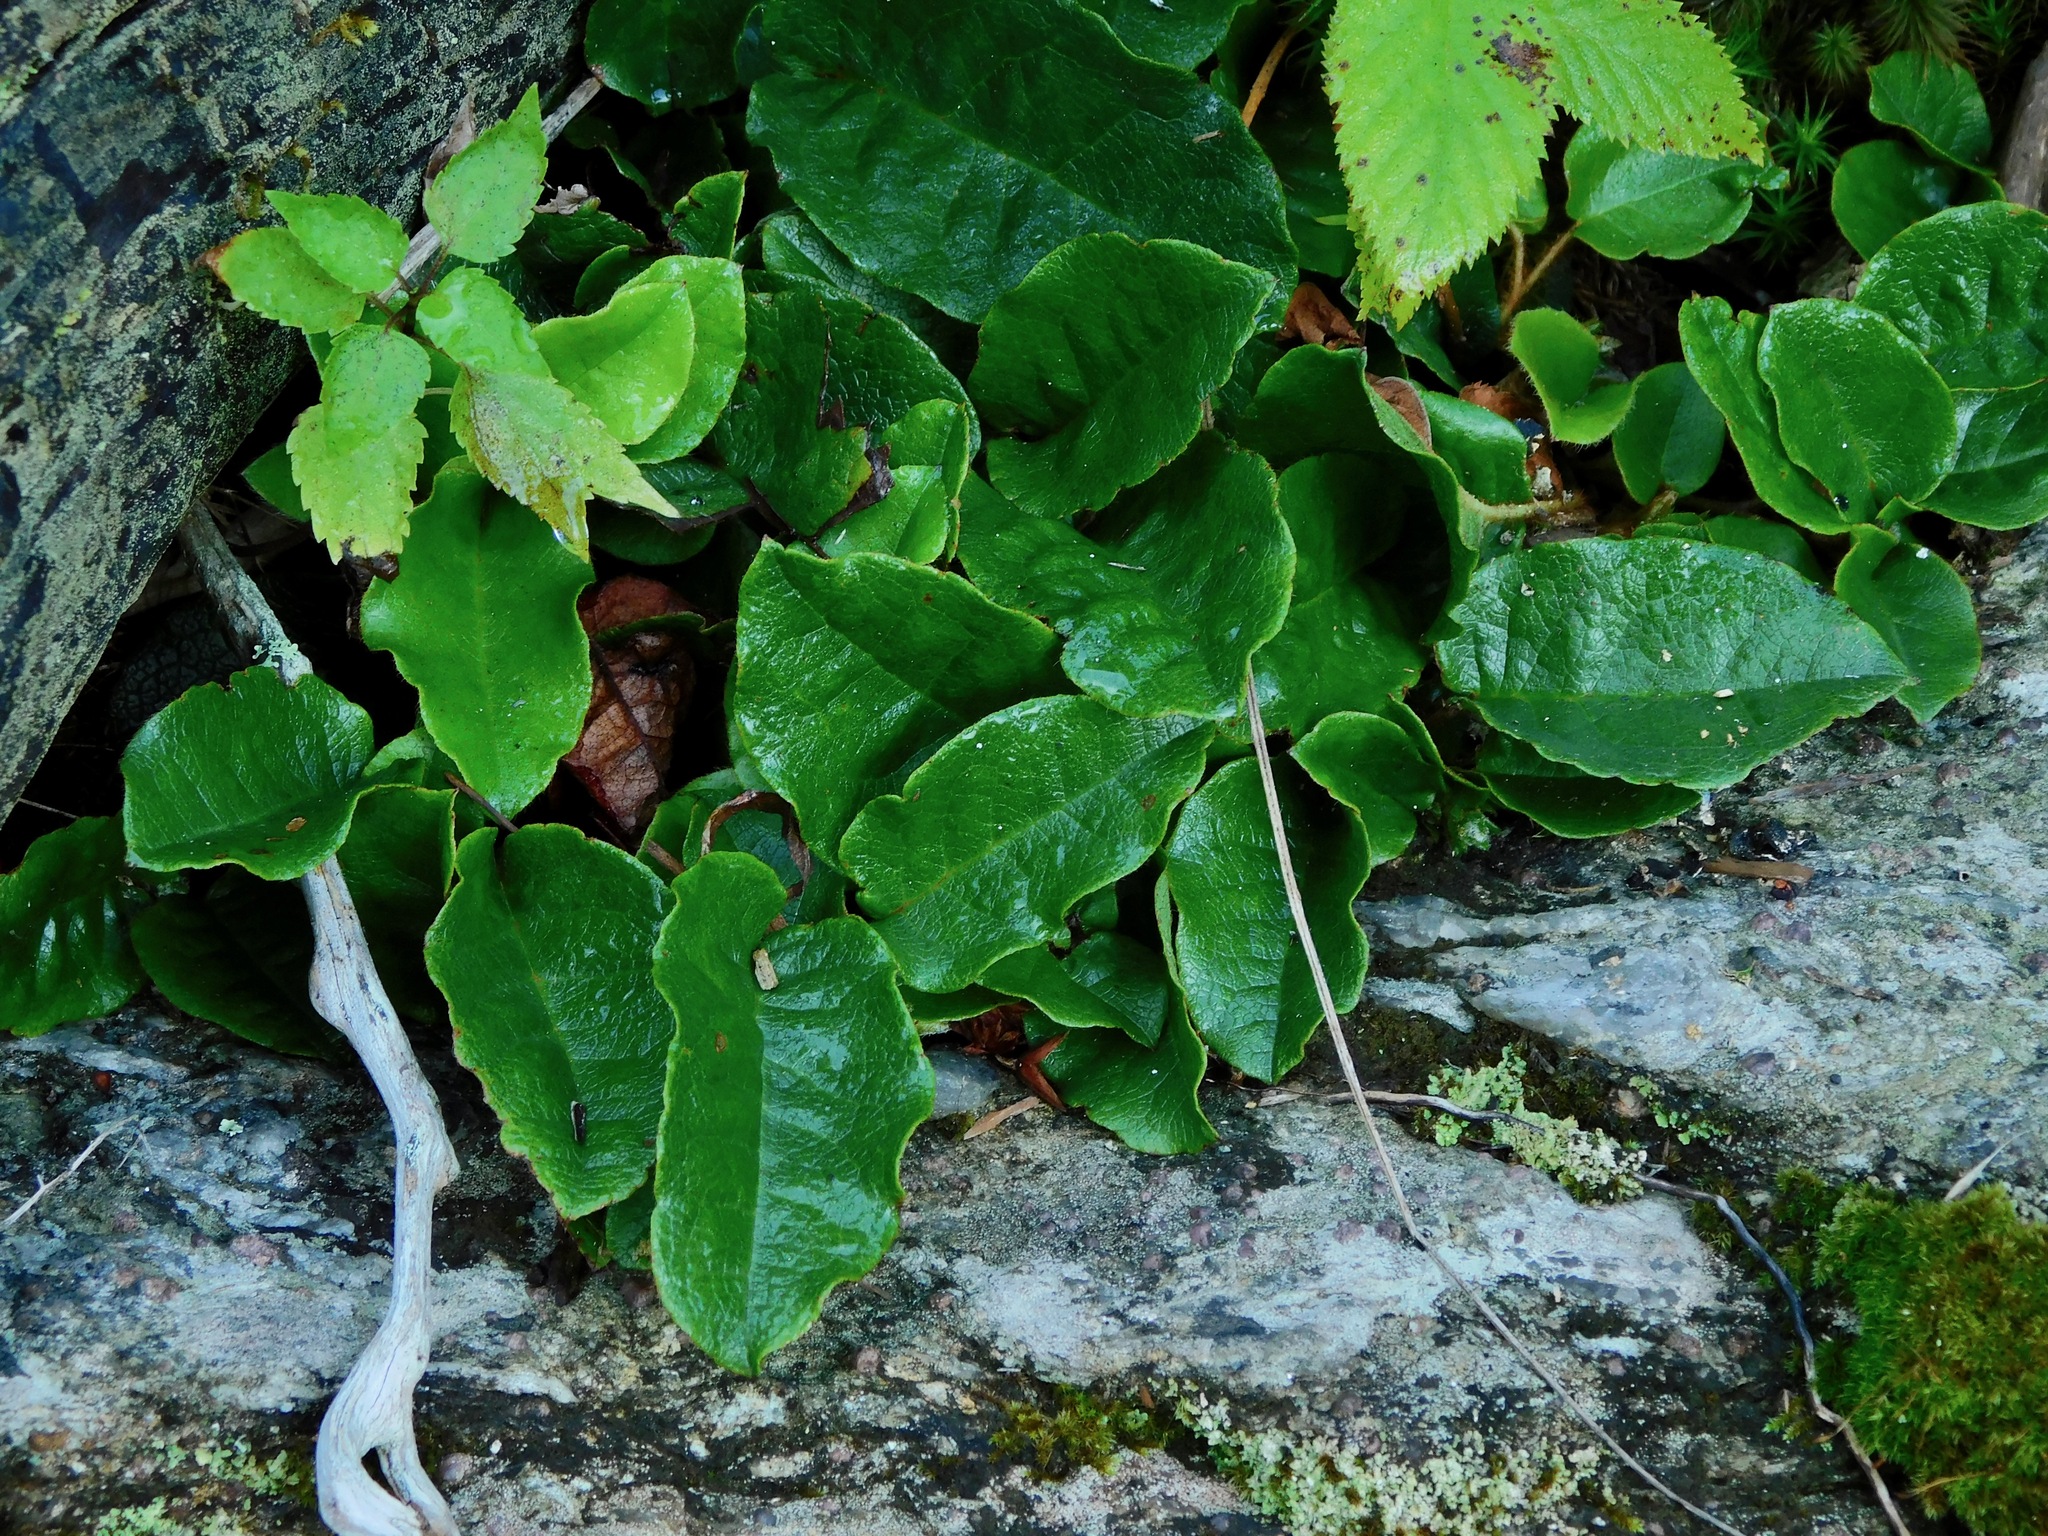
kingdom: Plantae
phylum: Tracheophyta
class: Magnoliopsida
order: Ericales
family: Ericaceae
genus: Epigaea
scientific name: Epigaea repens
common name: Gravelroot
